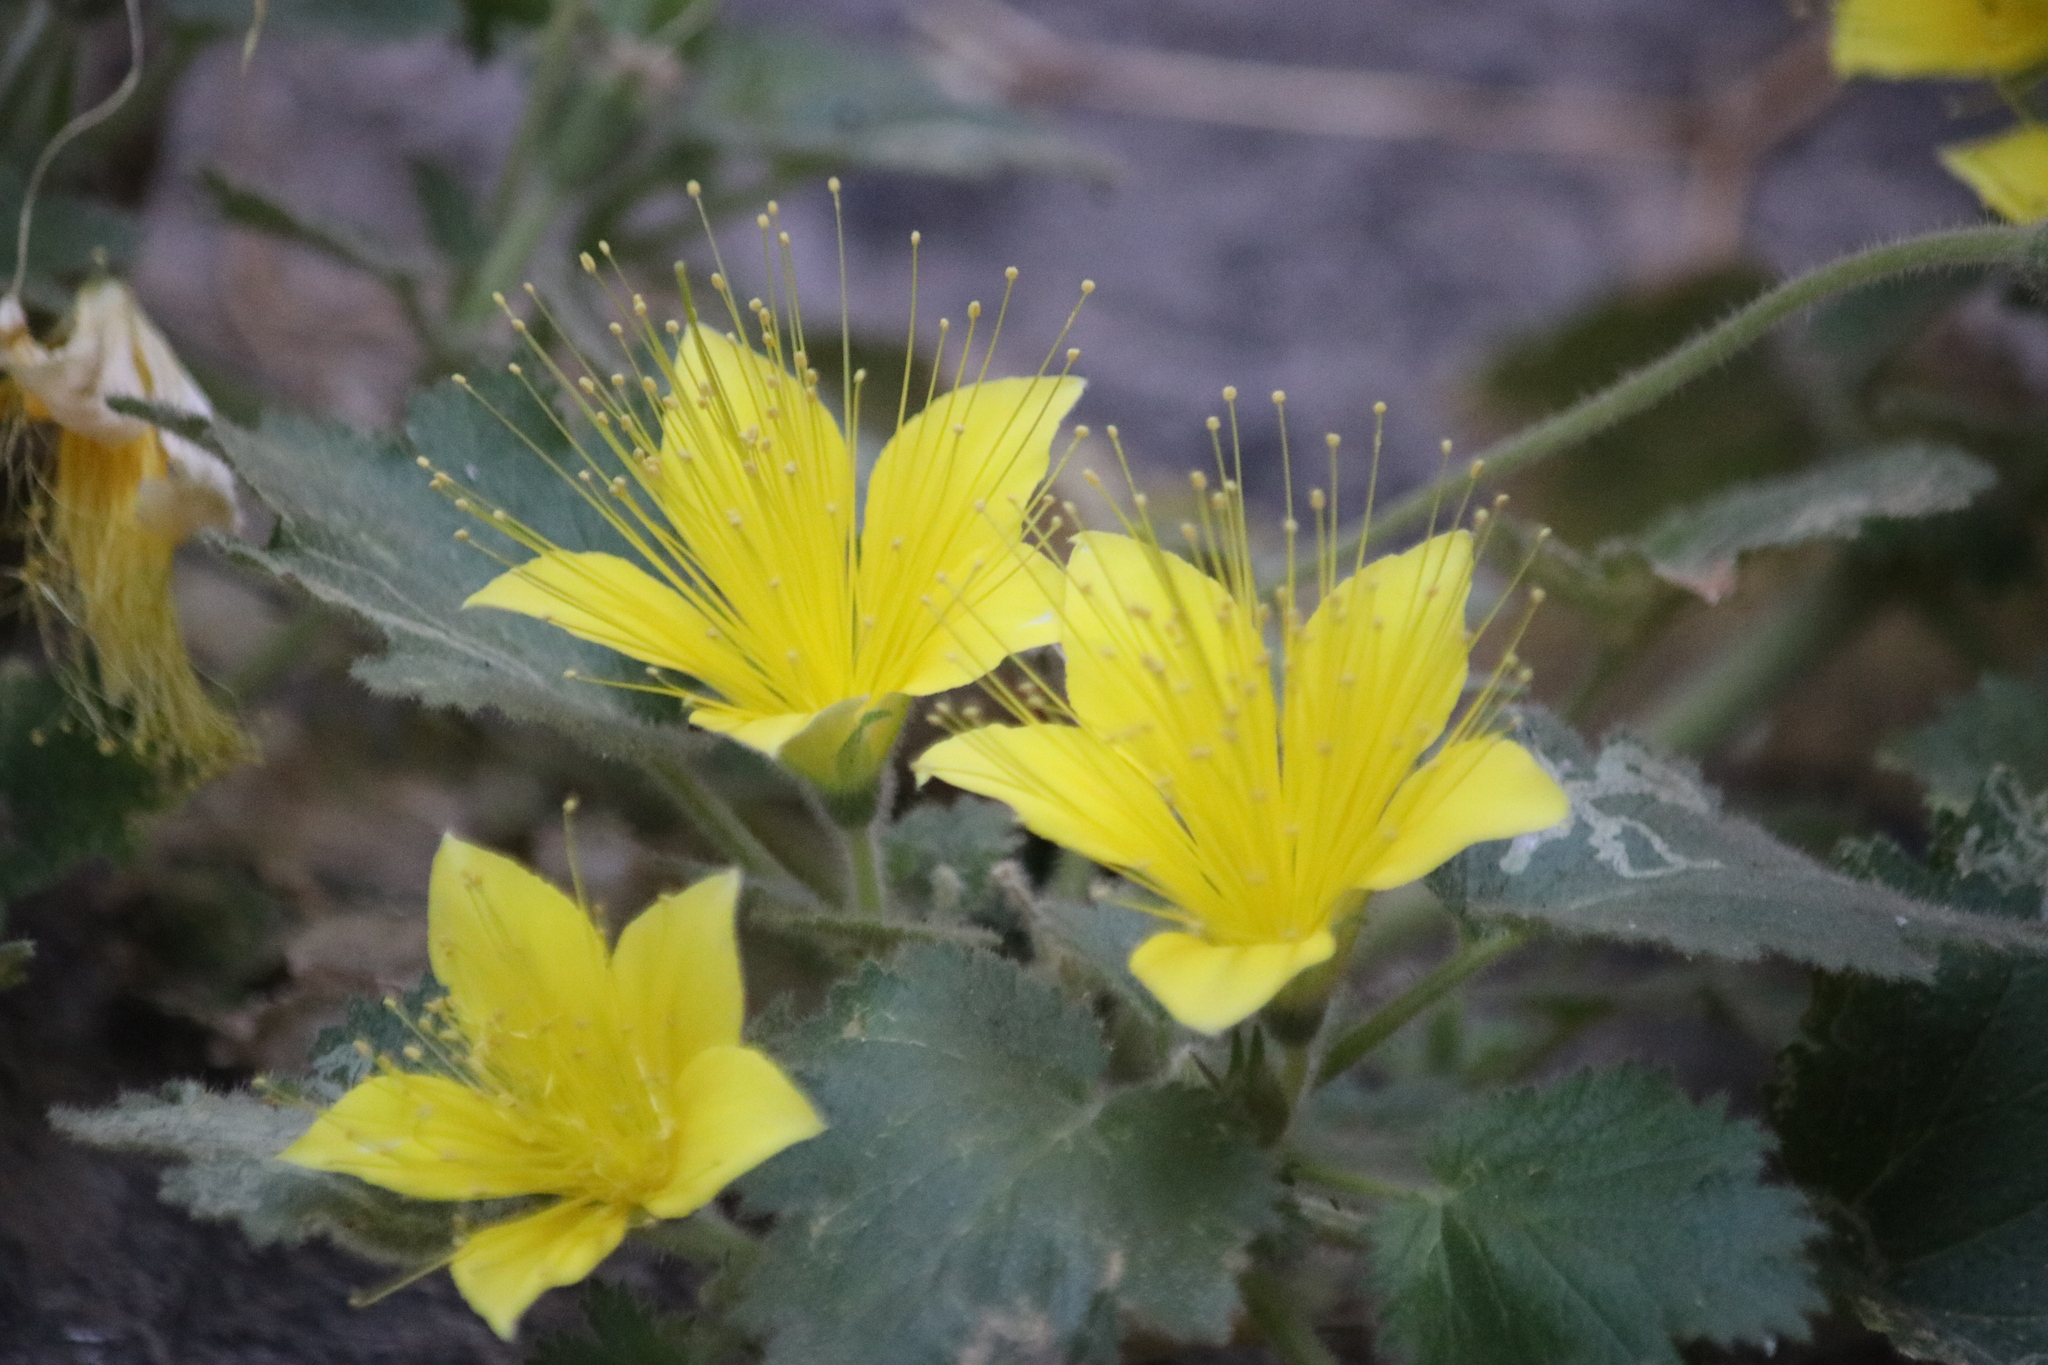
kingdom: Plantae
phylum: Tracheophyta
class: Magnoliopsida
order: Cornales
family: Loasaceae
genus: Eucnide
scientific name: Eucnide bartonioides
